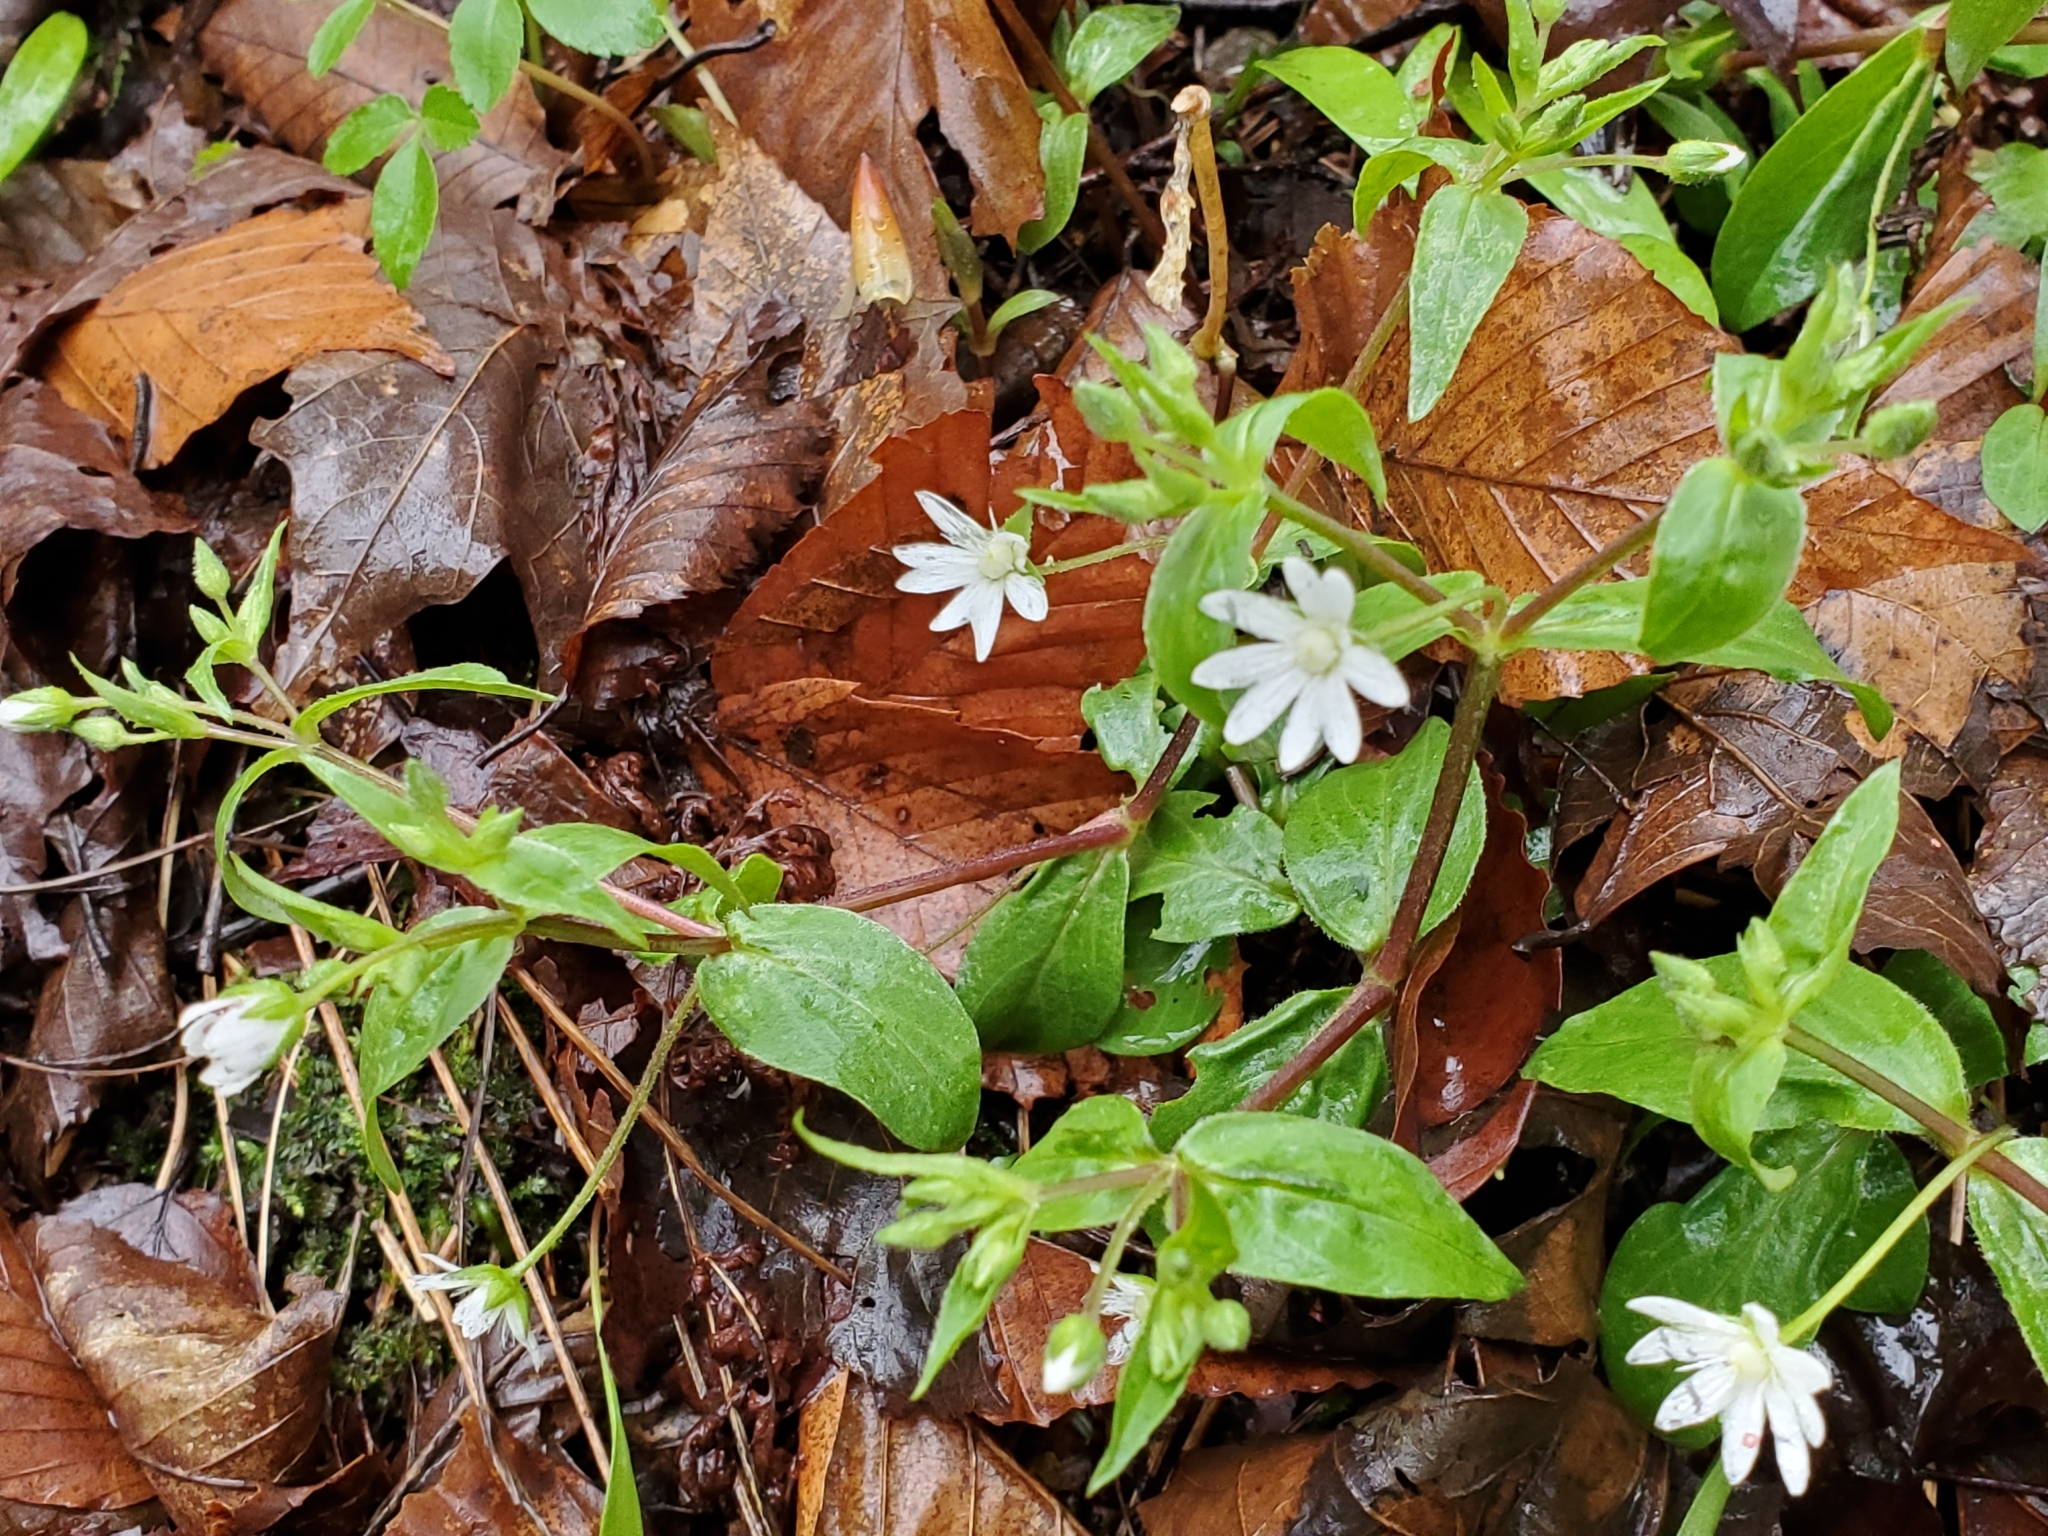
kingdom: Plantae
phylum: Tracheophyta
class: Magnoliopsida
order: Caryophyllales
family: Caryophyllaceae
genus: Stellaria
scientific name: Stellaria pubera
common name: Star chickweed
